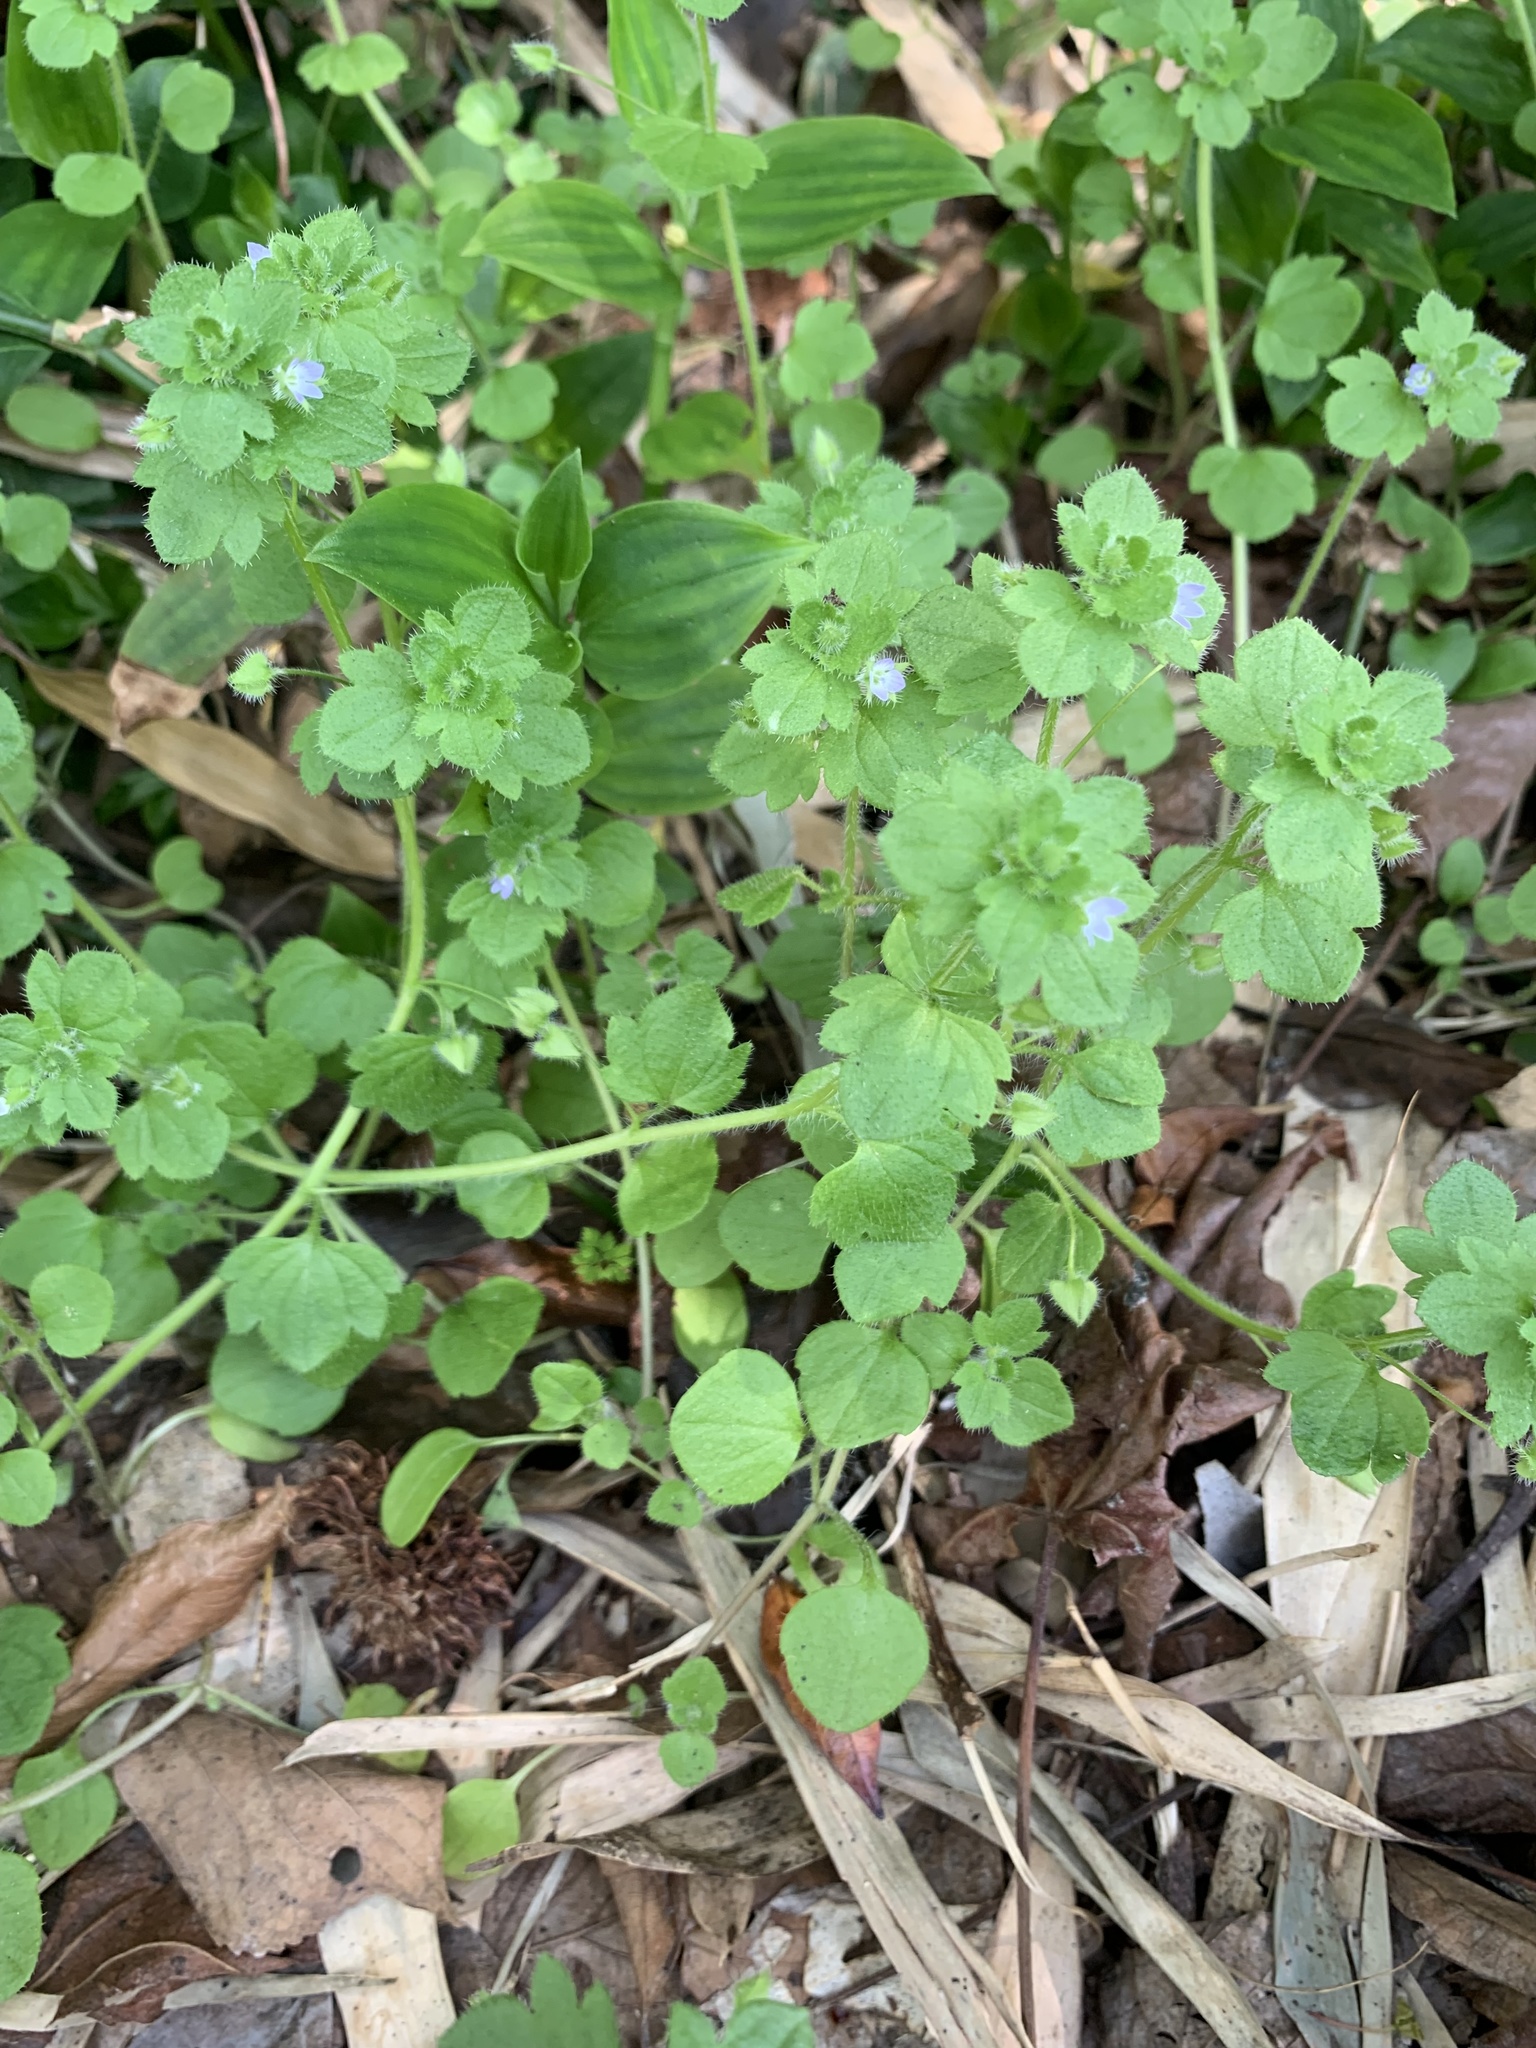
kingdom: Plantae
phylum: Tracheophyta
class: Magnoliopsida
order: Lamiales
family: Plantaginaceae
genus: Veronica
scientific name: Veronica hederifolia
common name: Ivy-leaved speedwell
